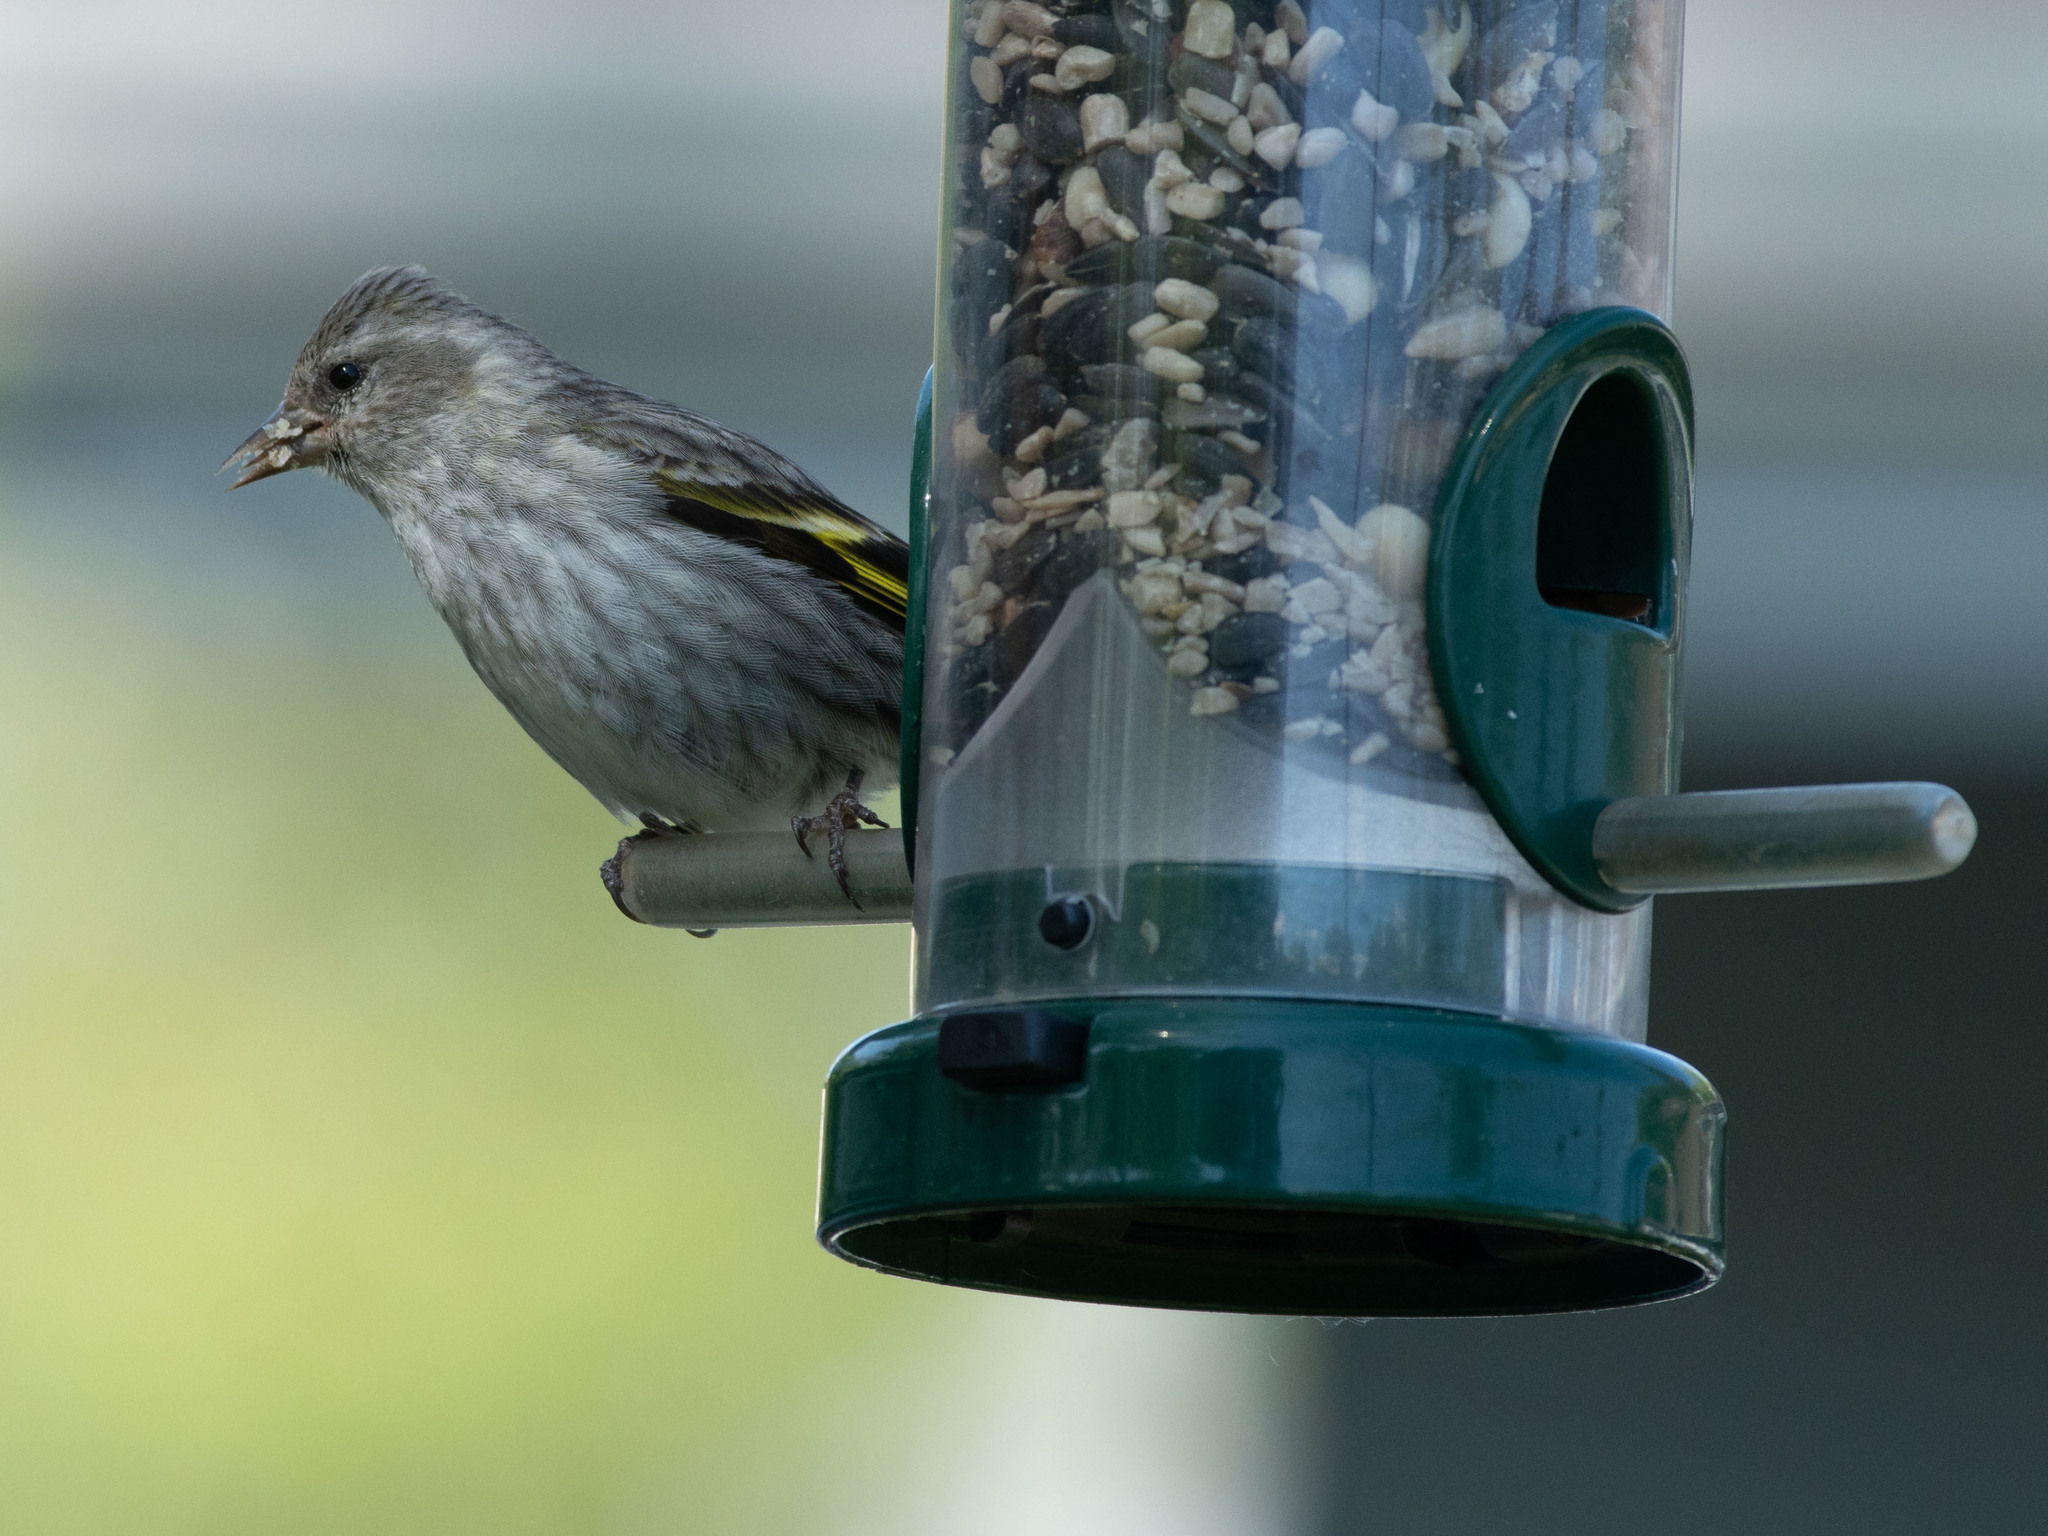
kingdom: Animalia
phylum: Chordata
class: Aves
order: Passeriformes
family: Fringillidae
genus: Spinus
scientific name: Spinus pinus
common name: Pine siskin
